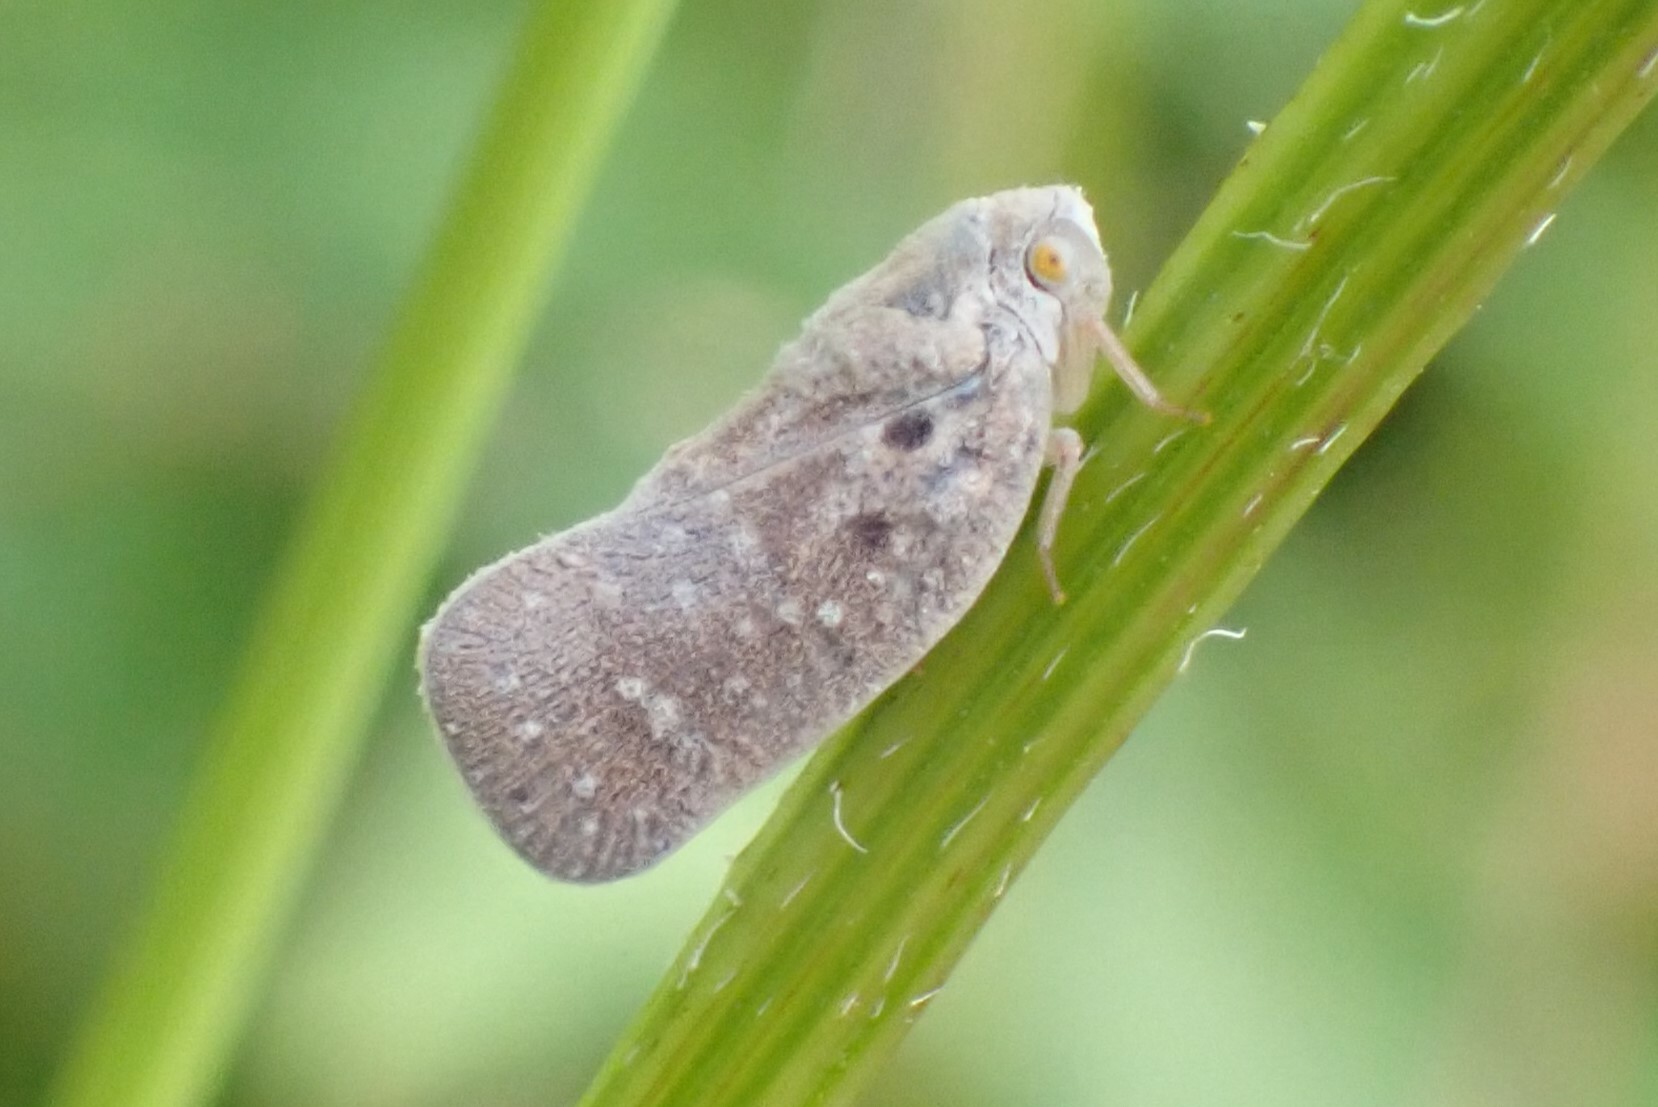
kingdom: Animalia
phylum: Arthropoda
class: Insecta
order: Hemiptera
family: Flatidae
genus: Metcalfa
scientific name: Metcalfa pruinosa
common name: Citrus flatid planthopper
